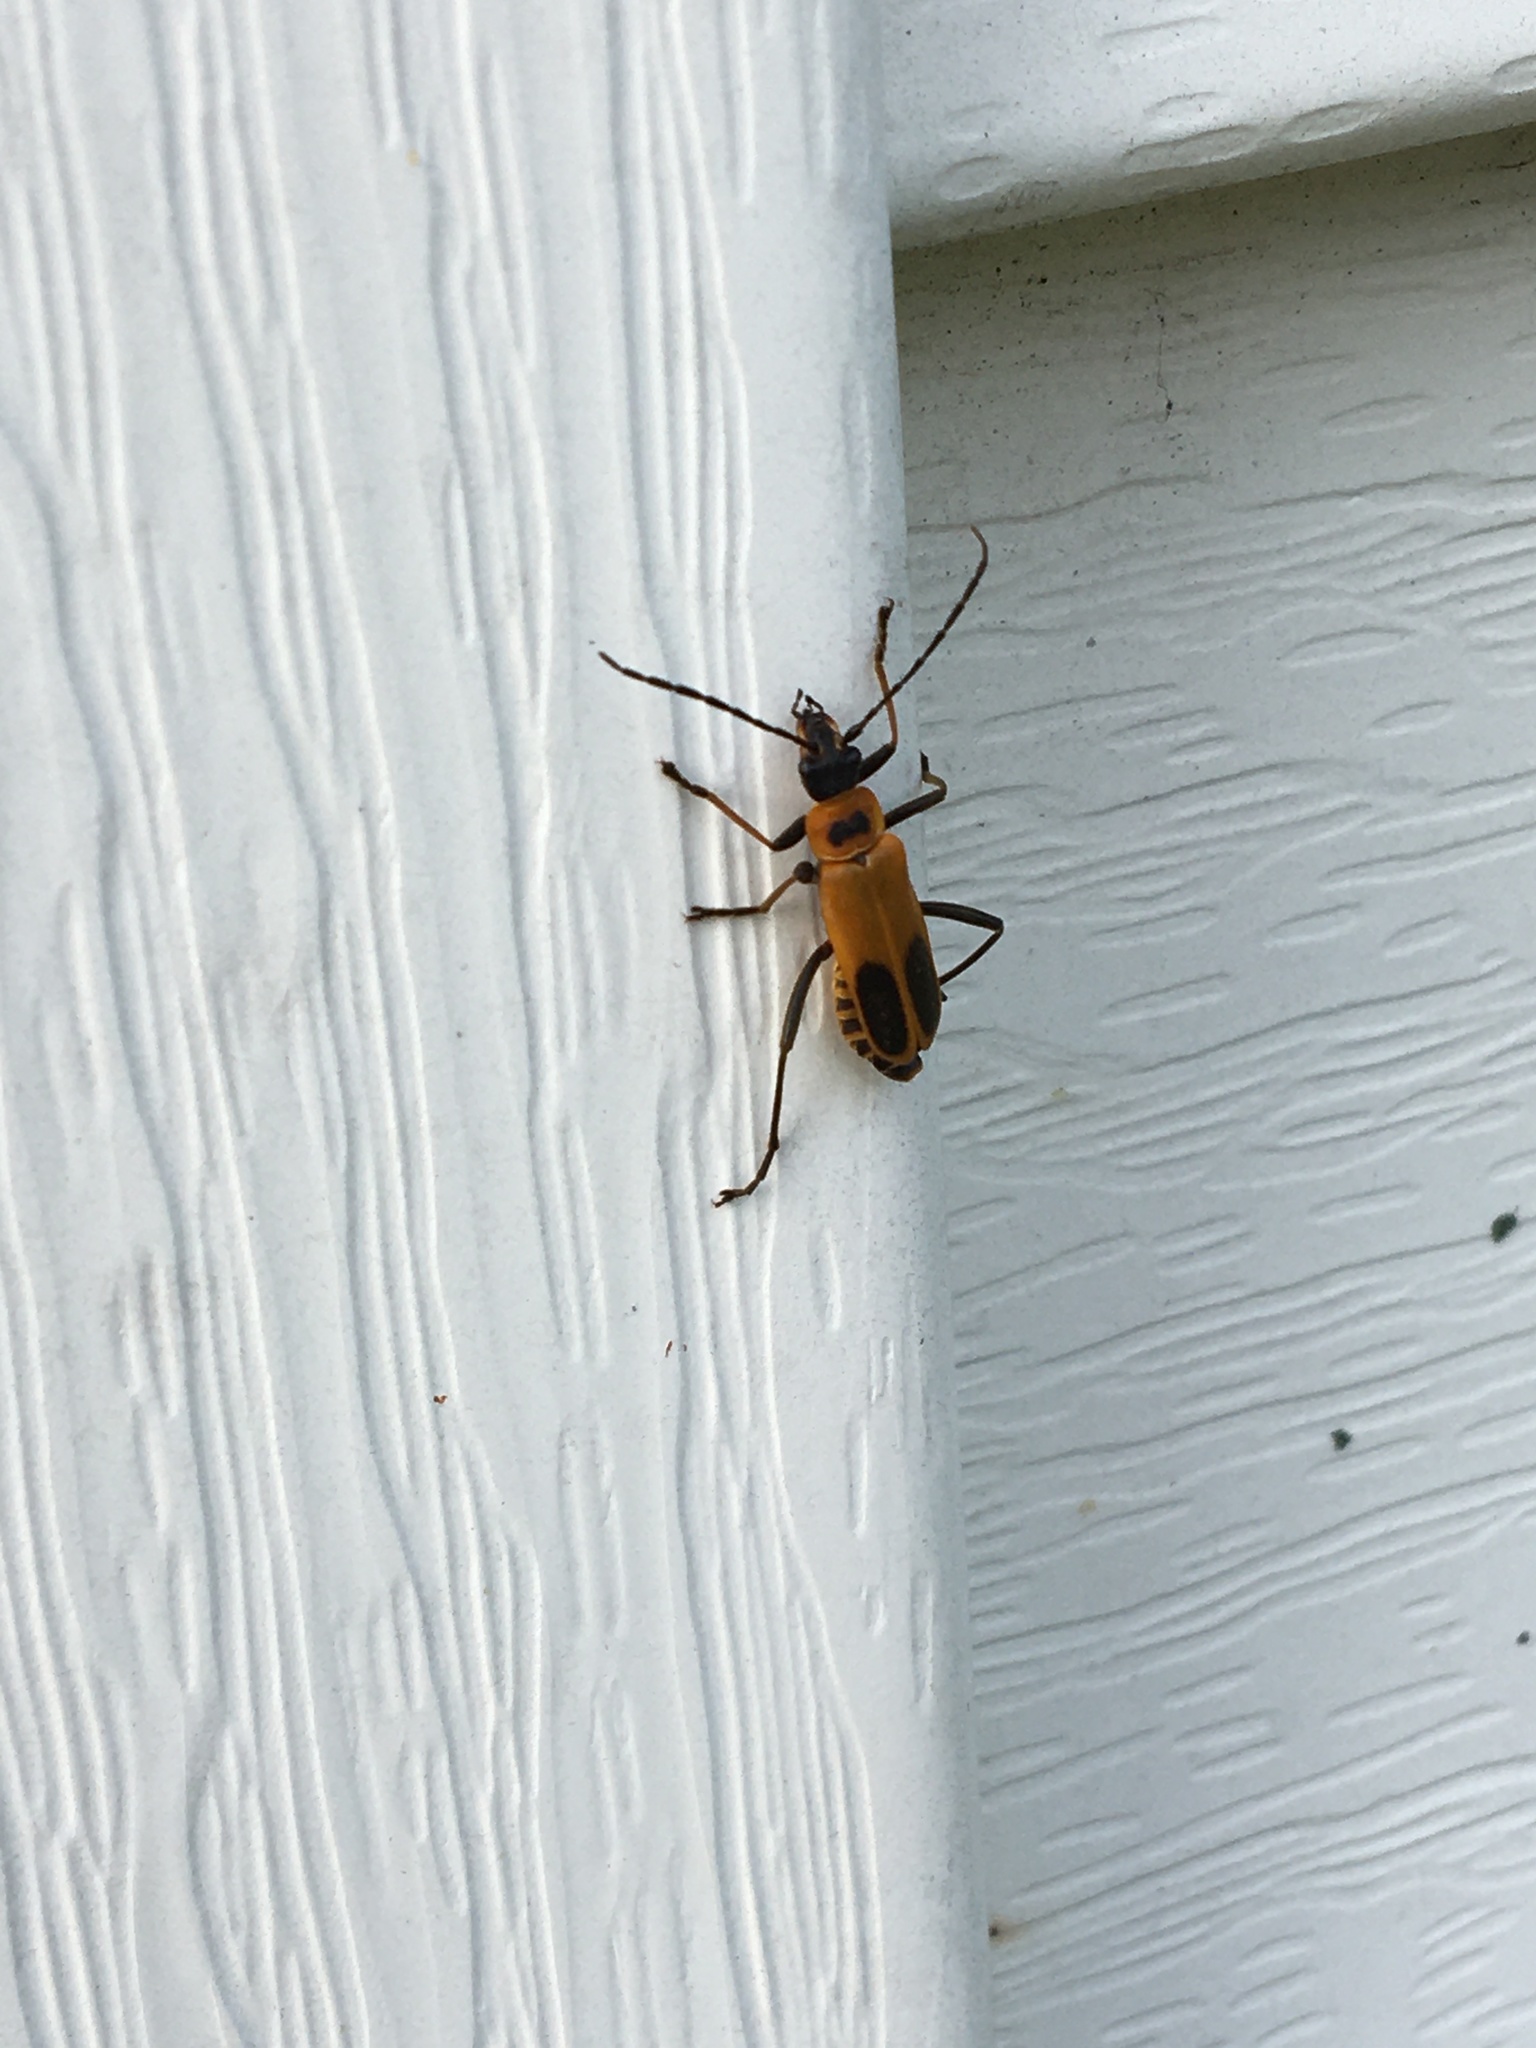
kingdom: Animalia
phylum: Arthropoda
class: Insecta
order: Coleoptera
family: Cantharidae
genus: Chauliognathus
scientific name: Chauliognathus pensylvanicus
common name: Goldenrod soldier beetle
